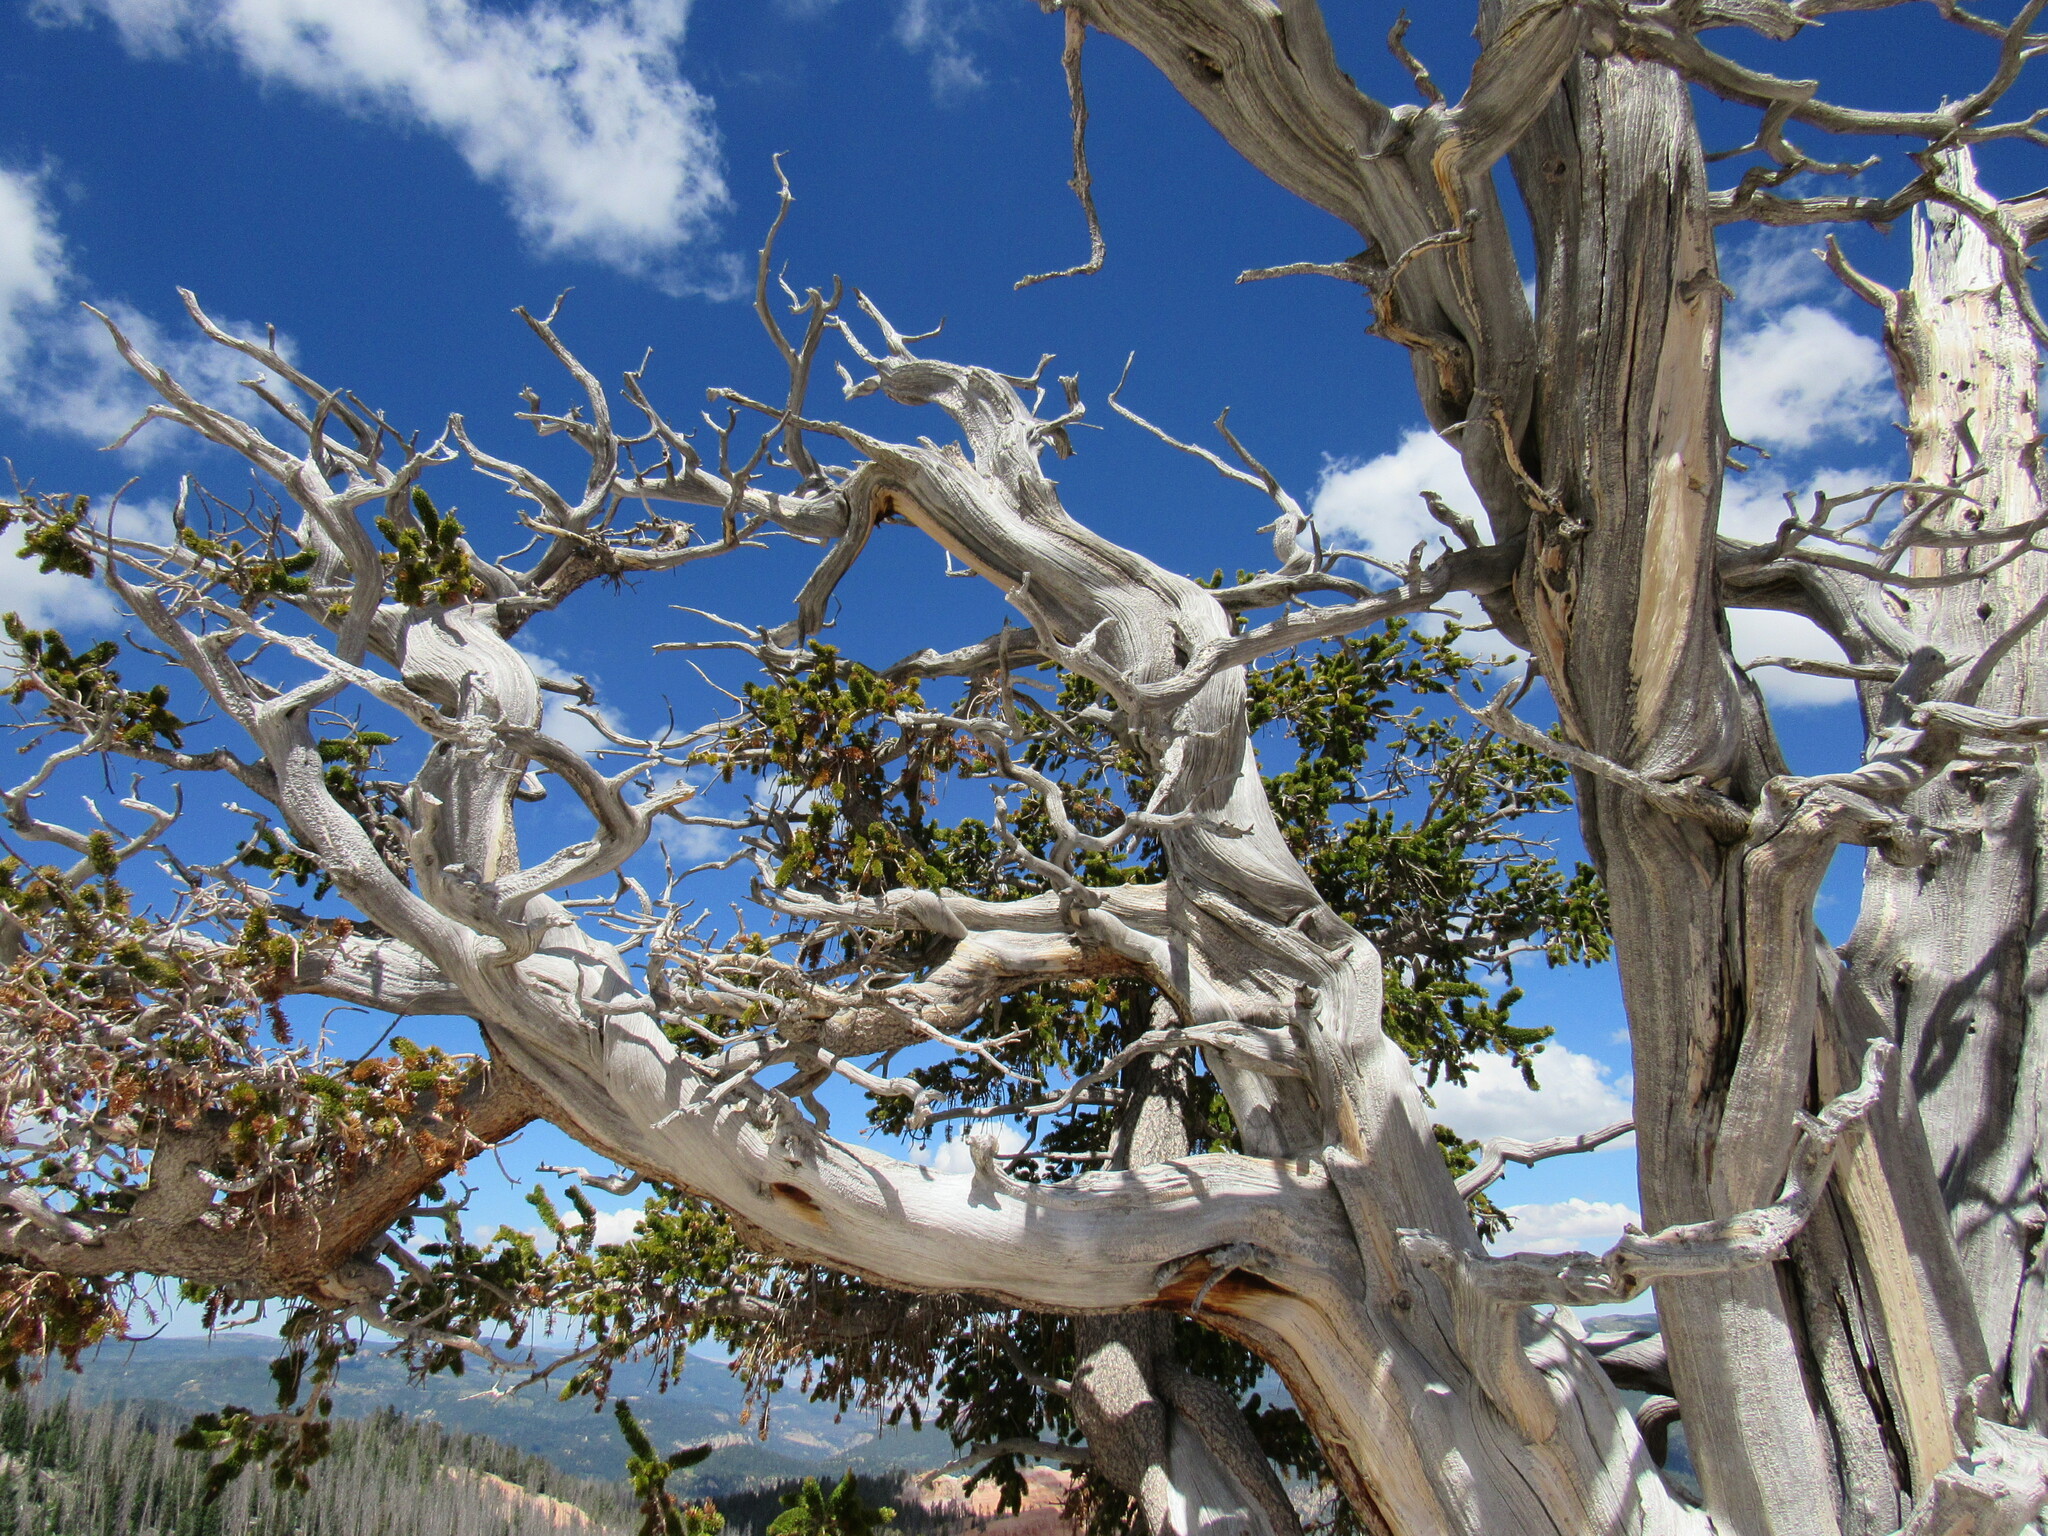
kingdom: Plantae
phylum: Tracheophyta
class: Pinopsida
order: Pinales
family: Pinaceae
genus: Pinus
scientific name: Pinus longaeva
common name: Intermountain bristlecone pine
